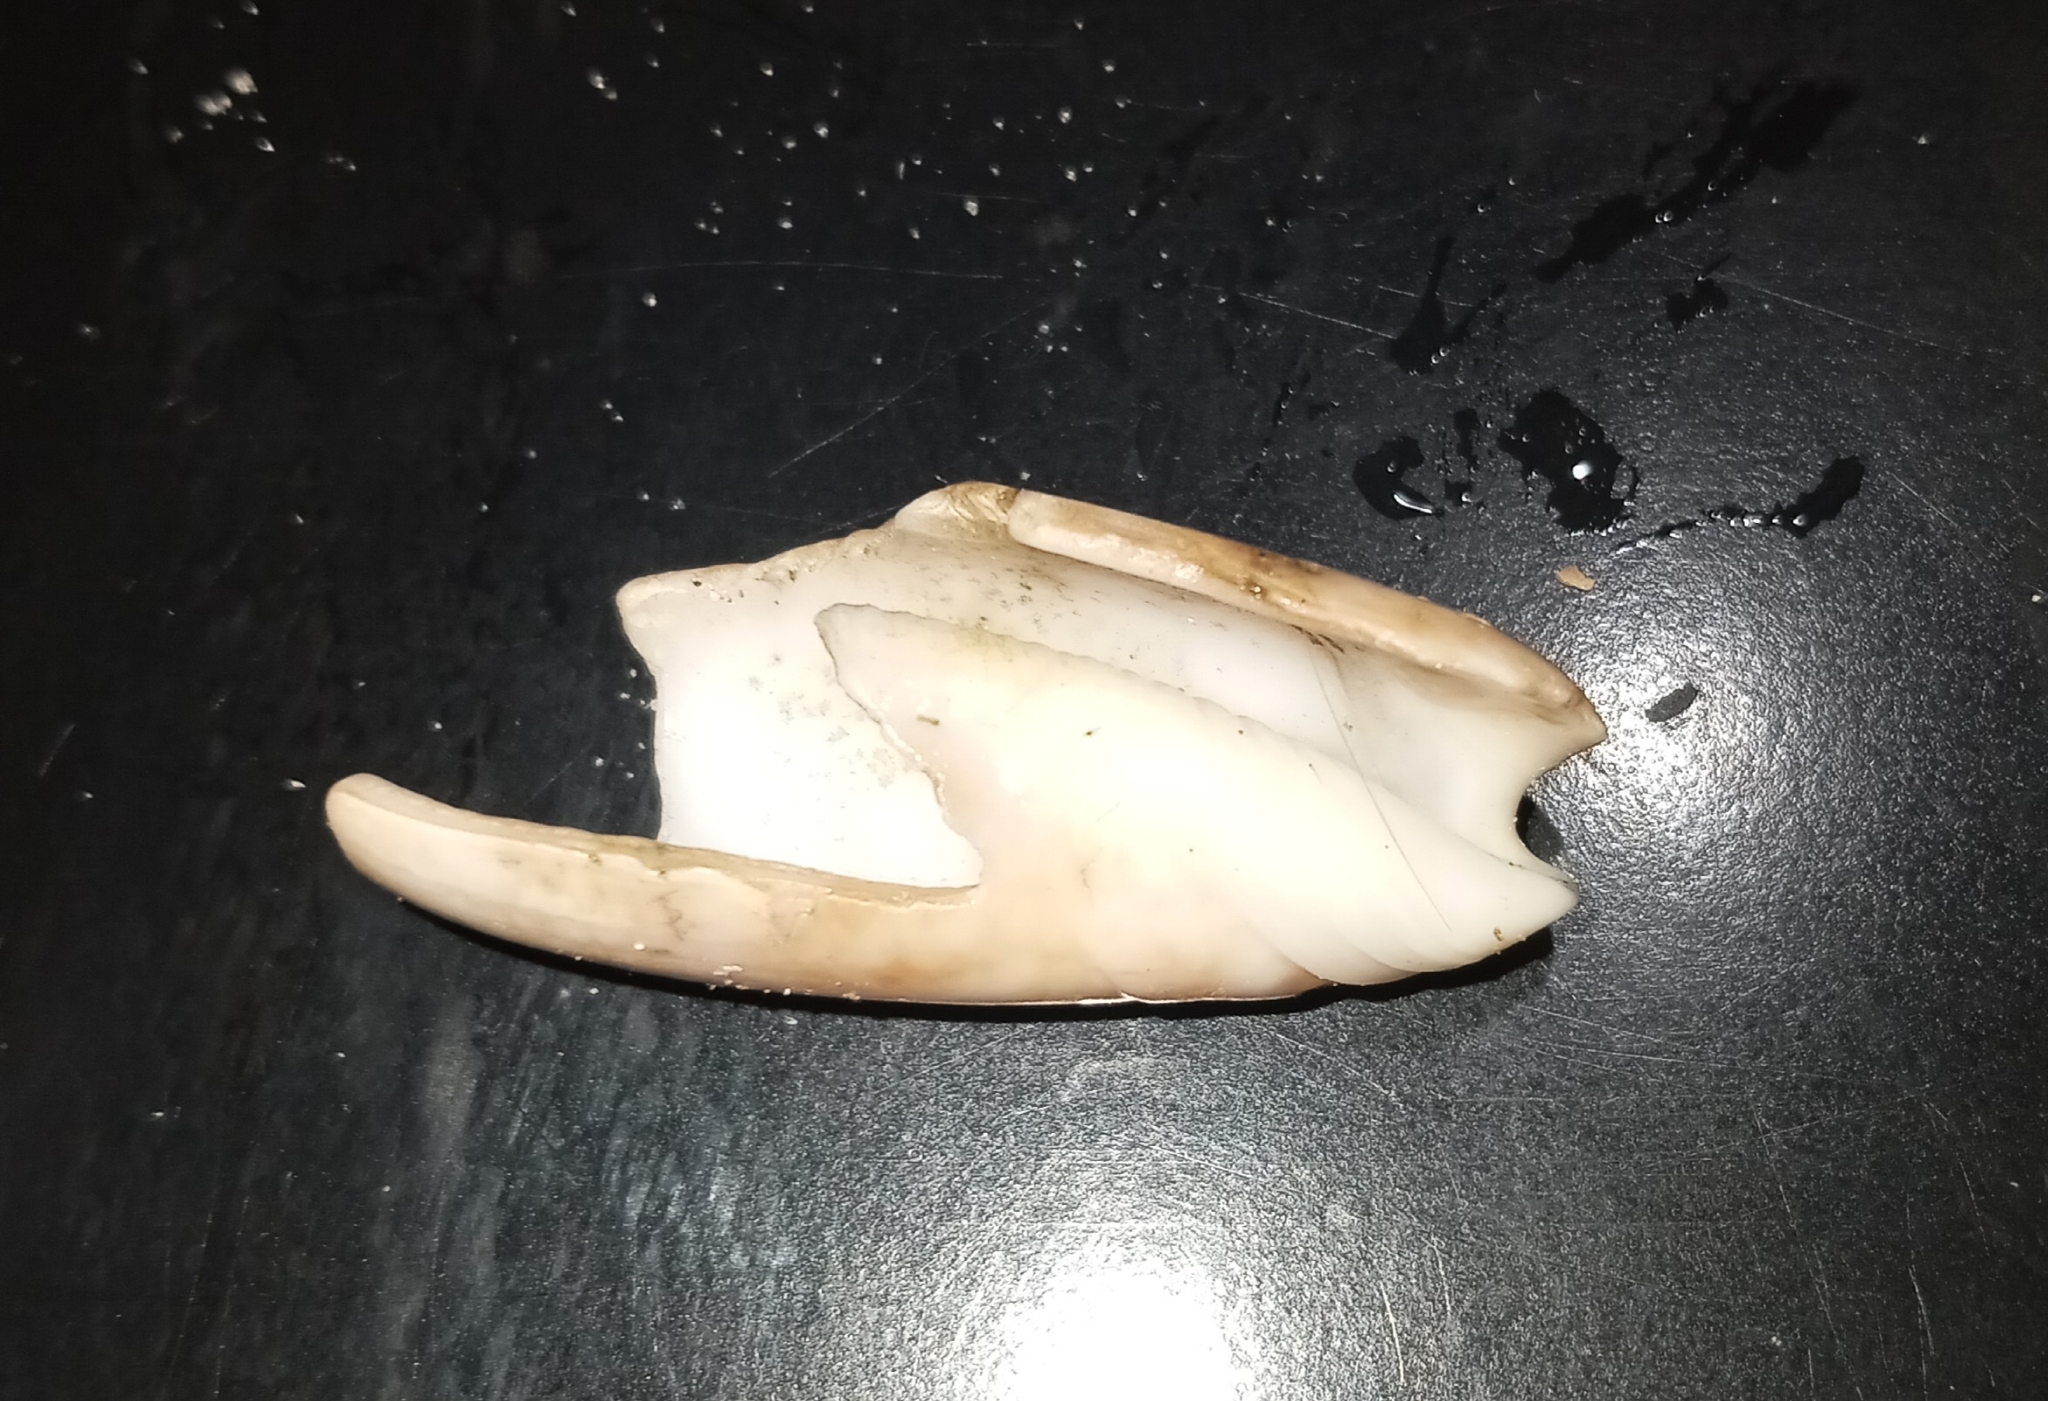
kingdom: Animalia
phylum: Mollusca
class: Gastropoda
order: Neogastropoda
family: Olividae
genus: Oliva
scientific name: Oliva sayana
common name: Lettered olive
